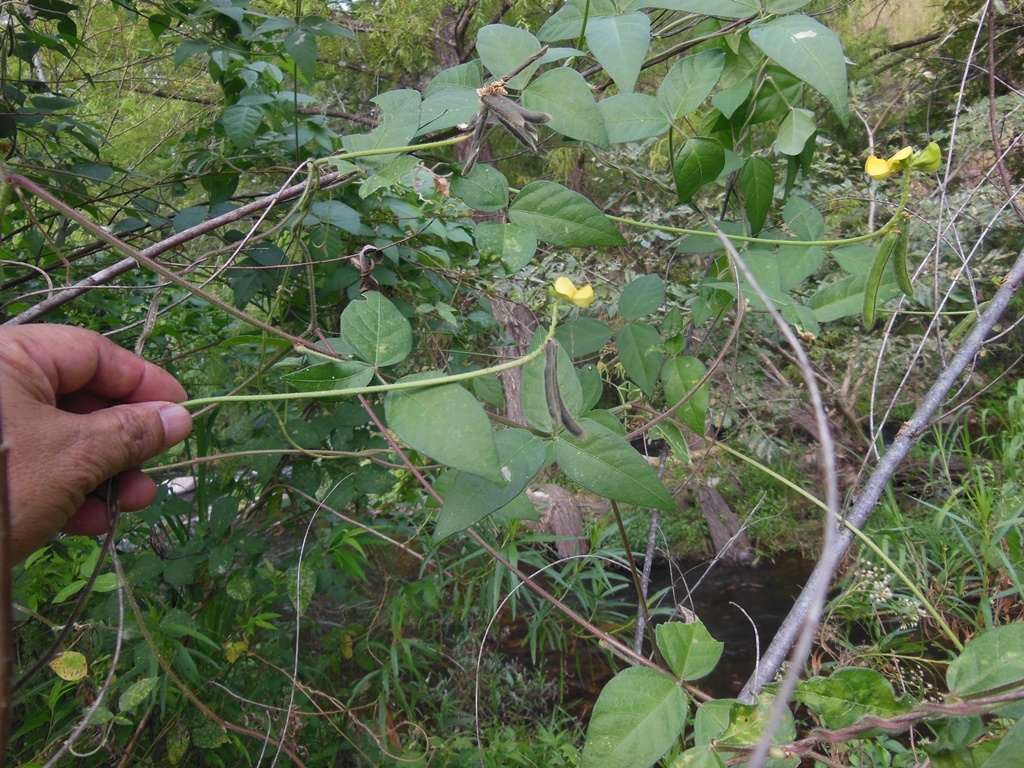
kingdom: Plantae
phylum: Tracheophyta
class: Magnoliopsida
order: Fabales
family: Fabaceae
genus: Vigna
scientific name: Vigna umbellata
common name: Oriental-bean
